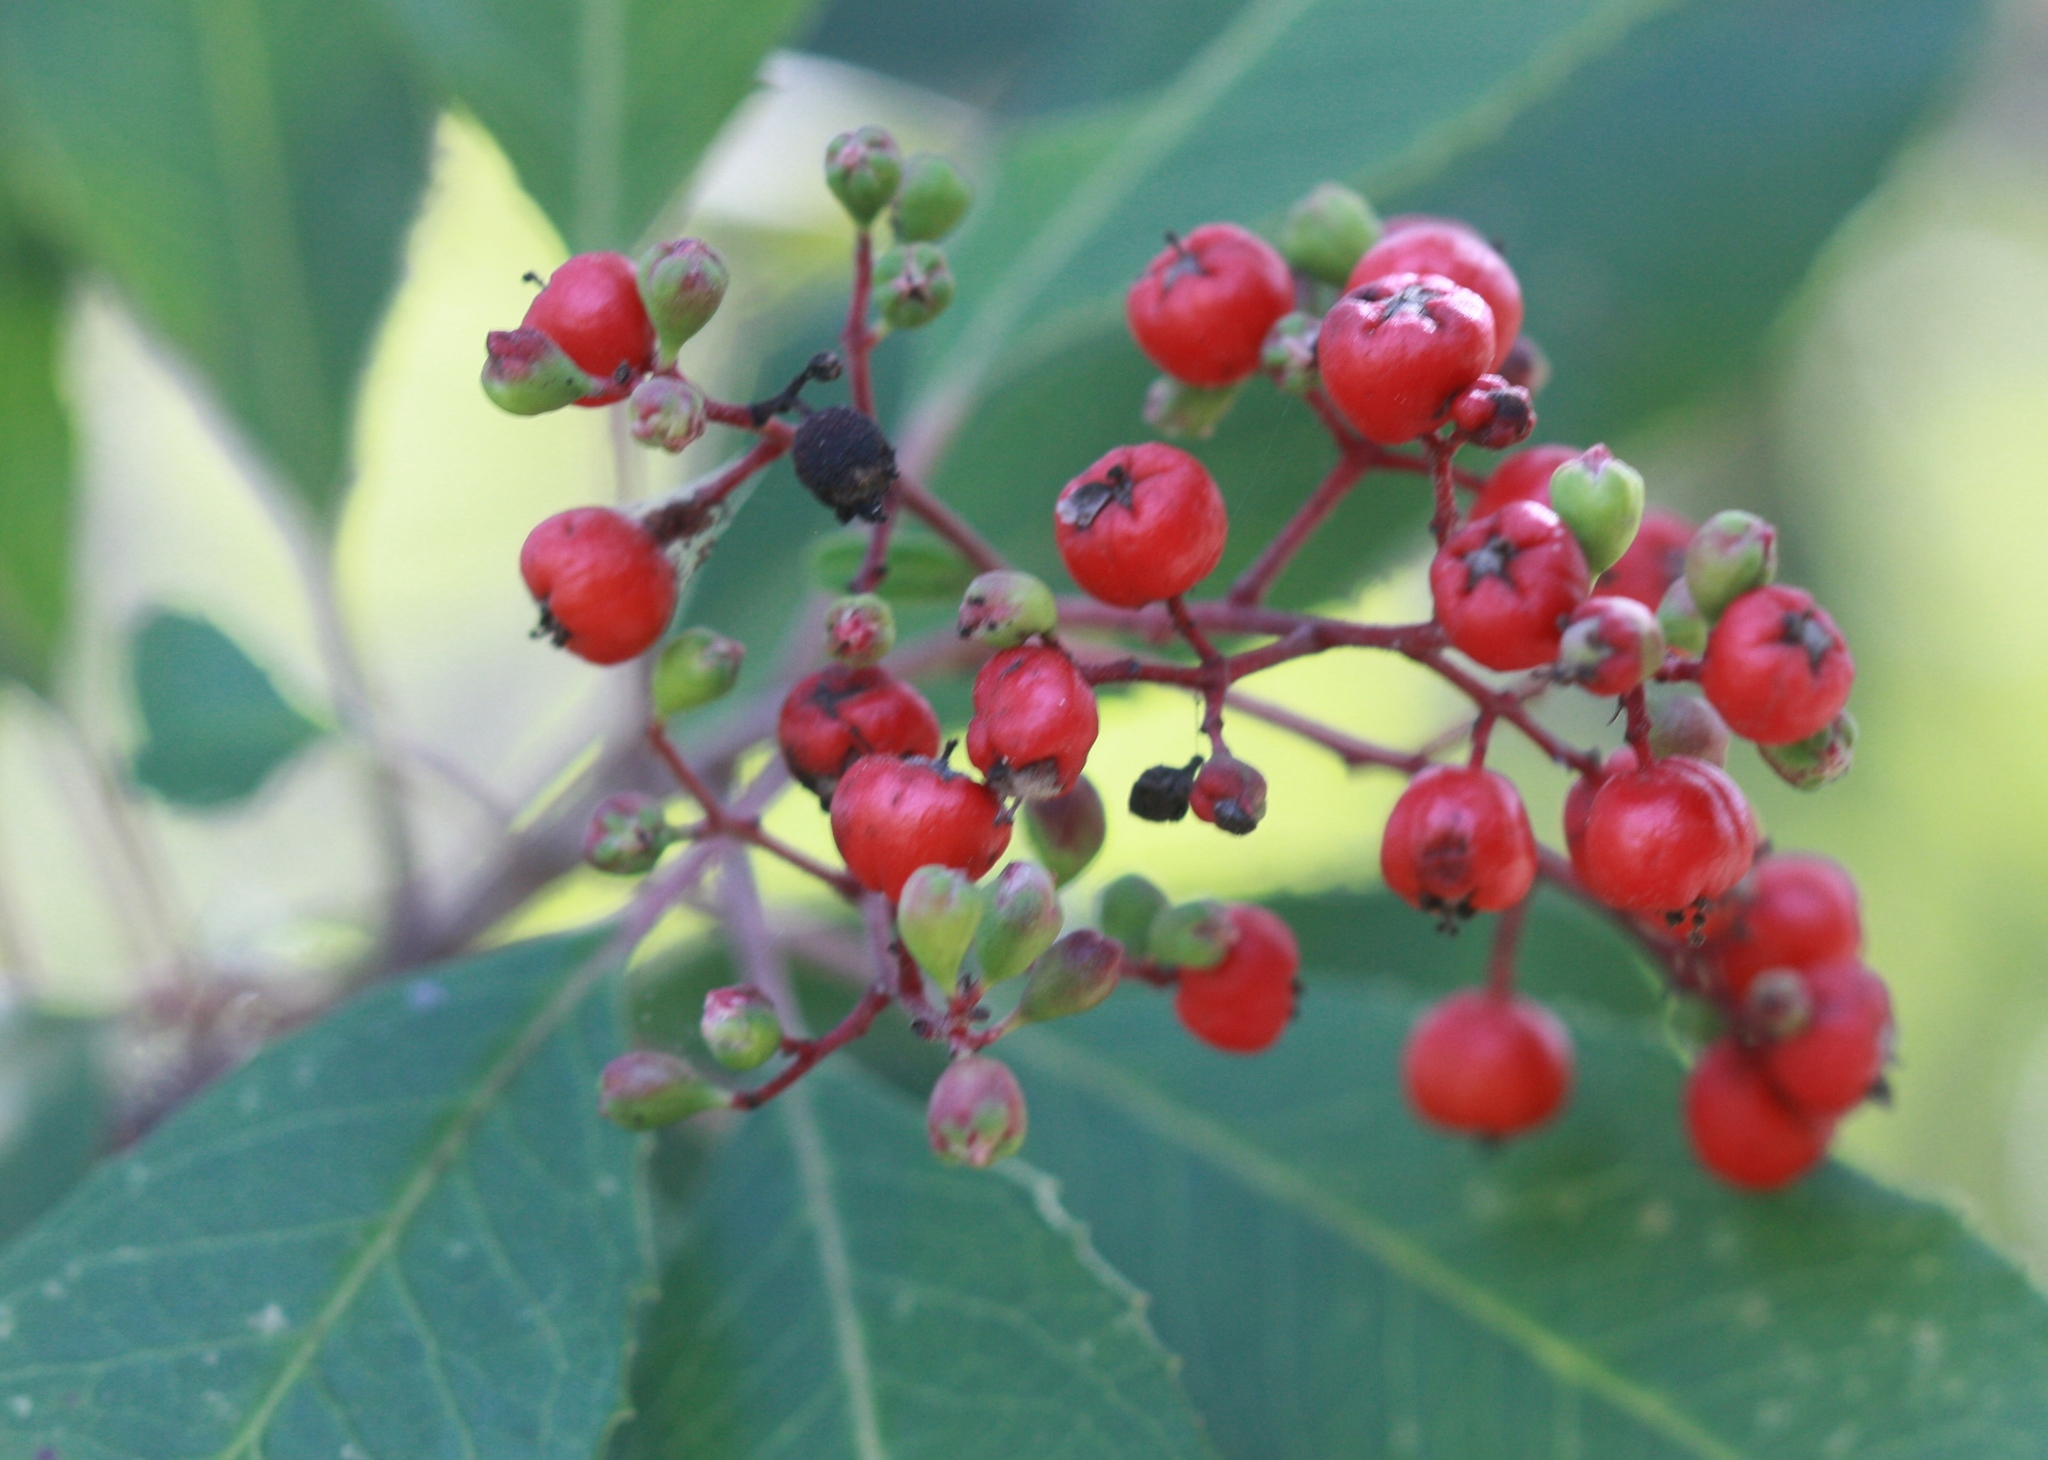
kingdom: Plantae
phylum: Tracheophyta
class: Magnoliopsida
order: Rosales
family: Rosaceae
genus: Heteromeles
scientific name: Heteromeles arbutifolia
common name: California-holly
